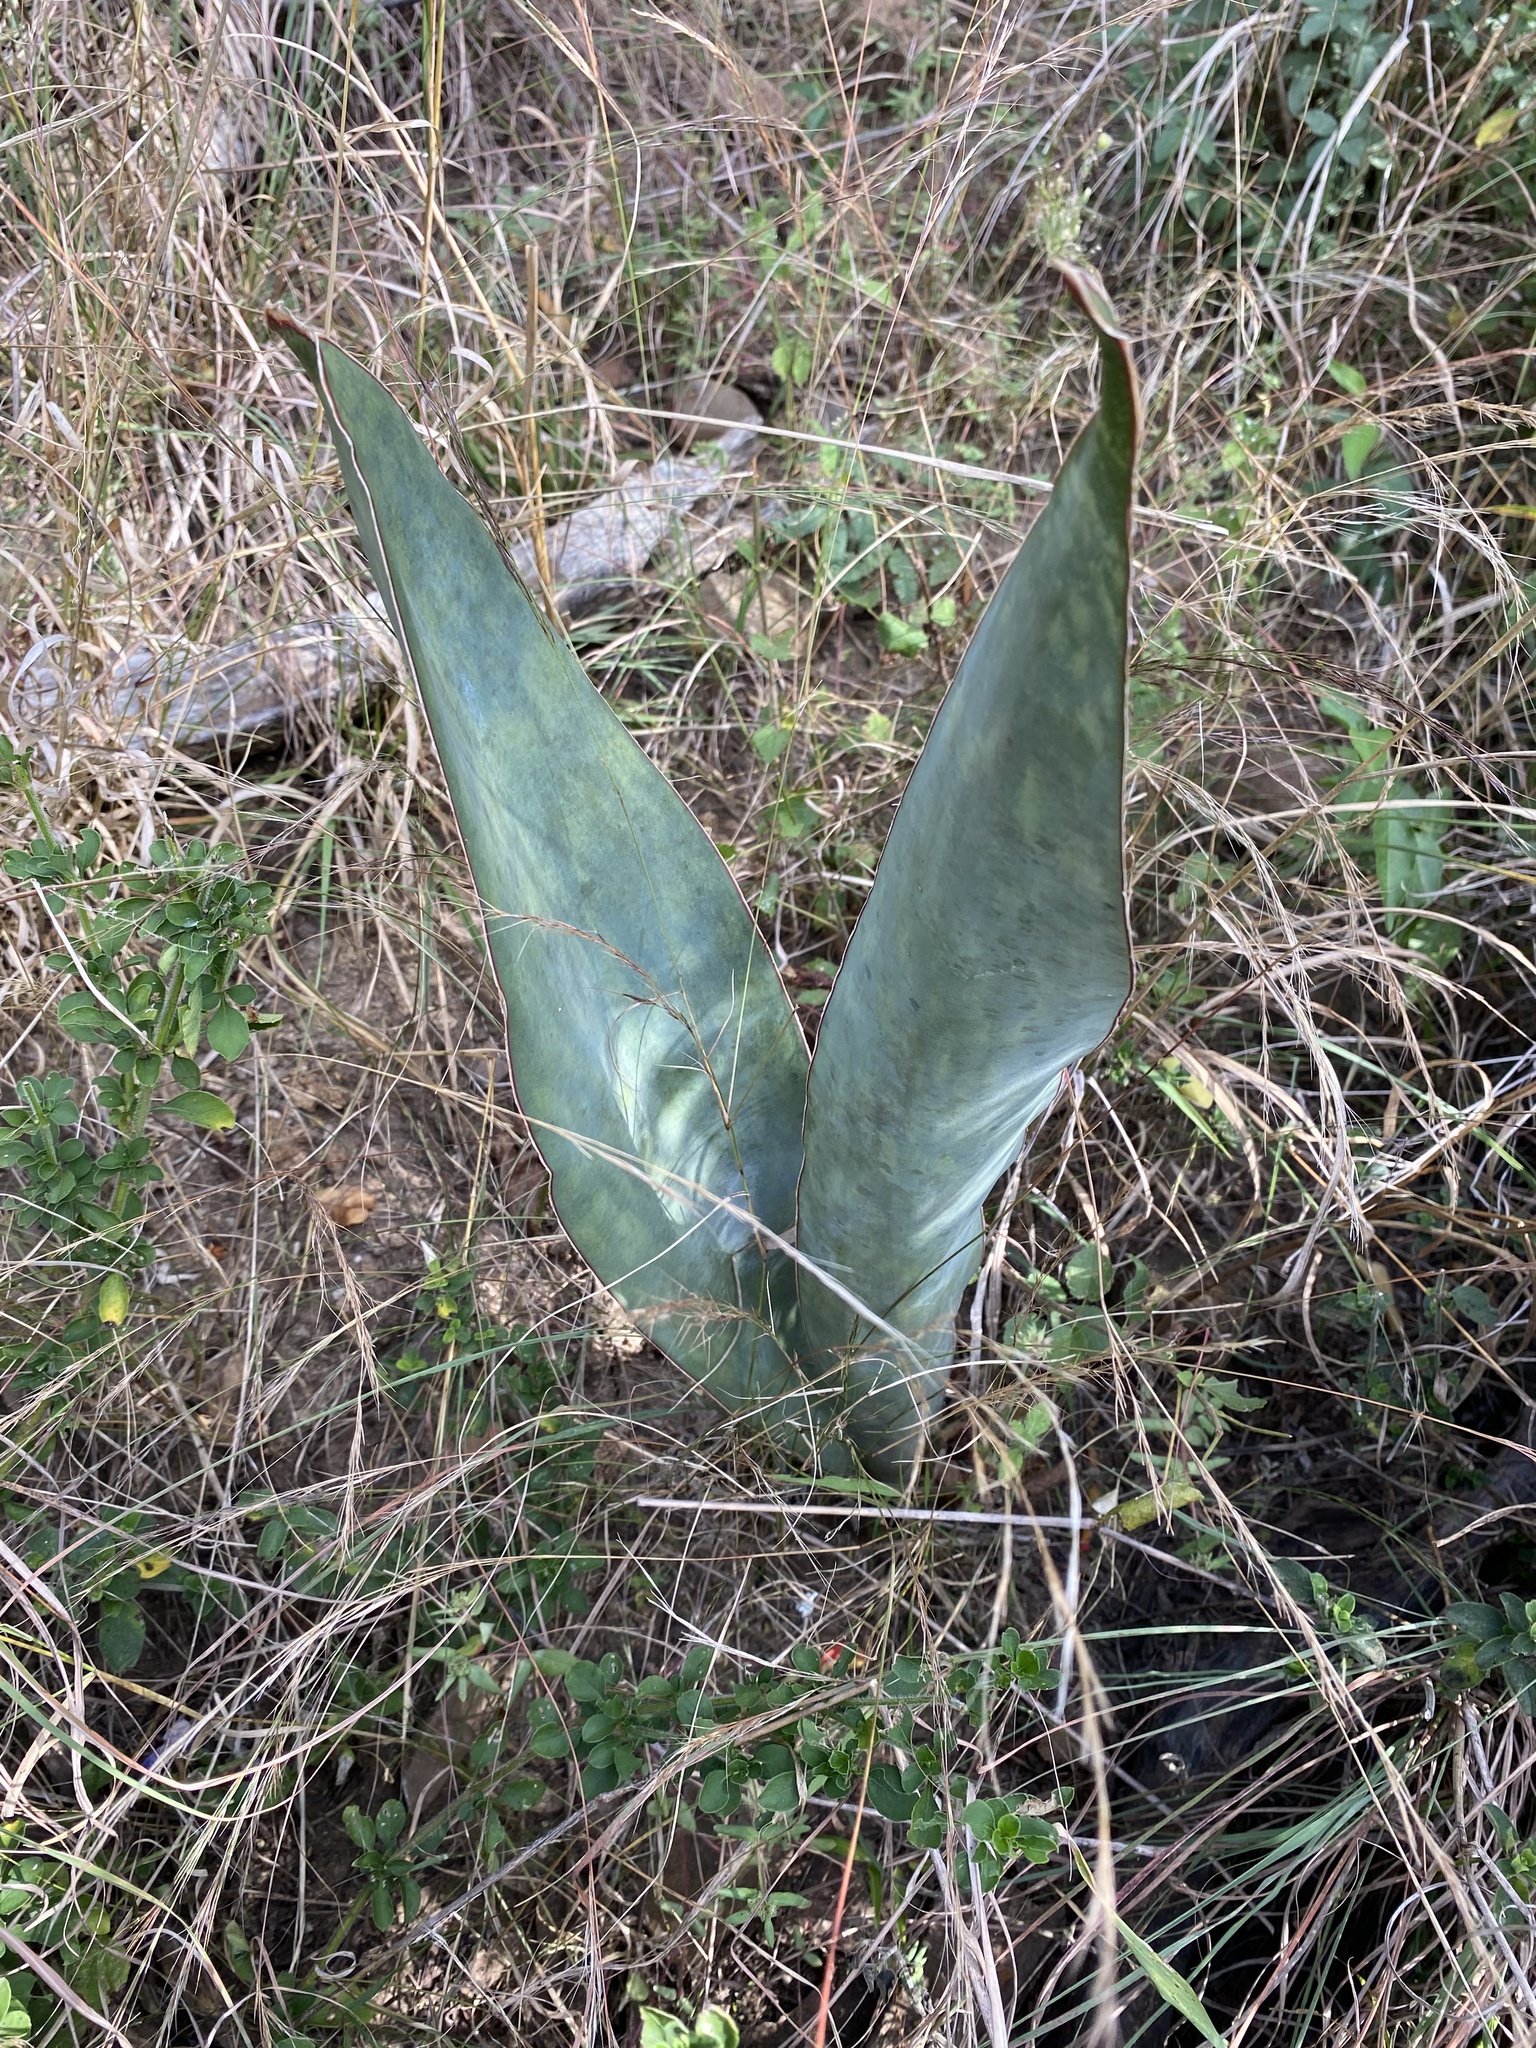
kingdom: Plantae
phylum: Tracheophyta
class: Liliopsida
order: Asparagales
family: Asparagaceae
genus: Dracaena
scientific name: Dracaena hyacinthoides
